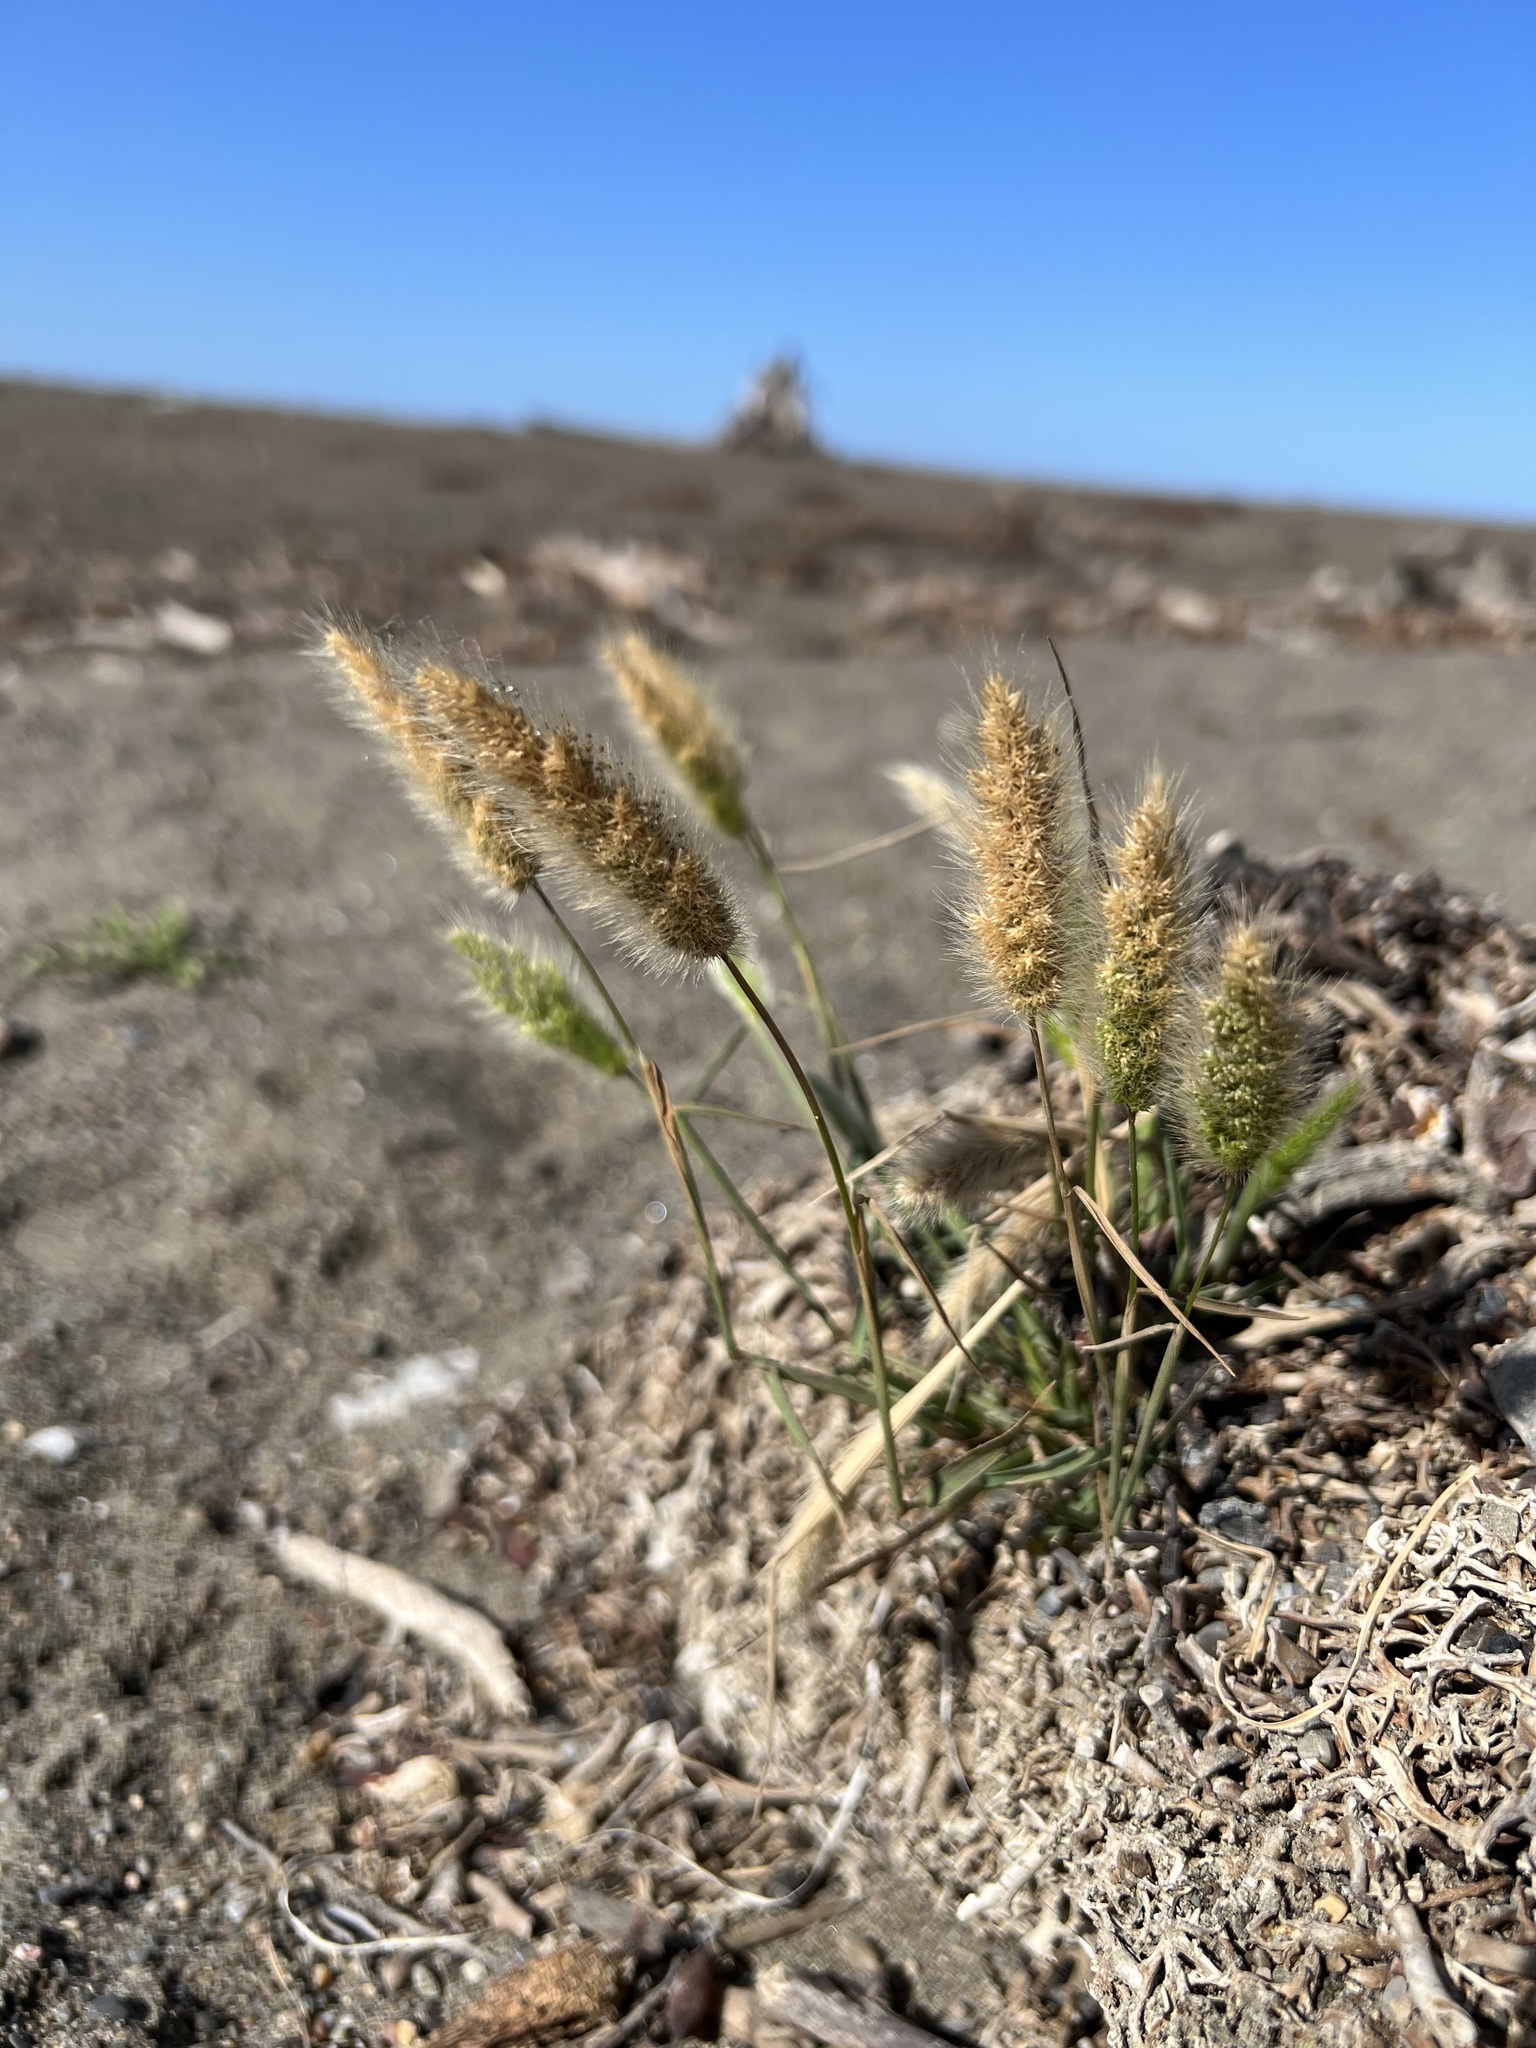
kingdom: Plantae
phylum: Tracheophyta
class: Liliopsida
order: Poales
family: Poaceae
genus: Polypogon
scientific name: Polypogon monspeliensis
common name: Annual rabbitsfoot grass
